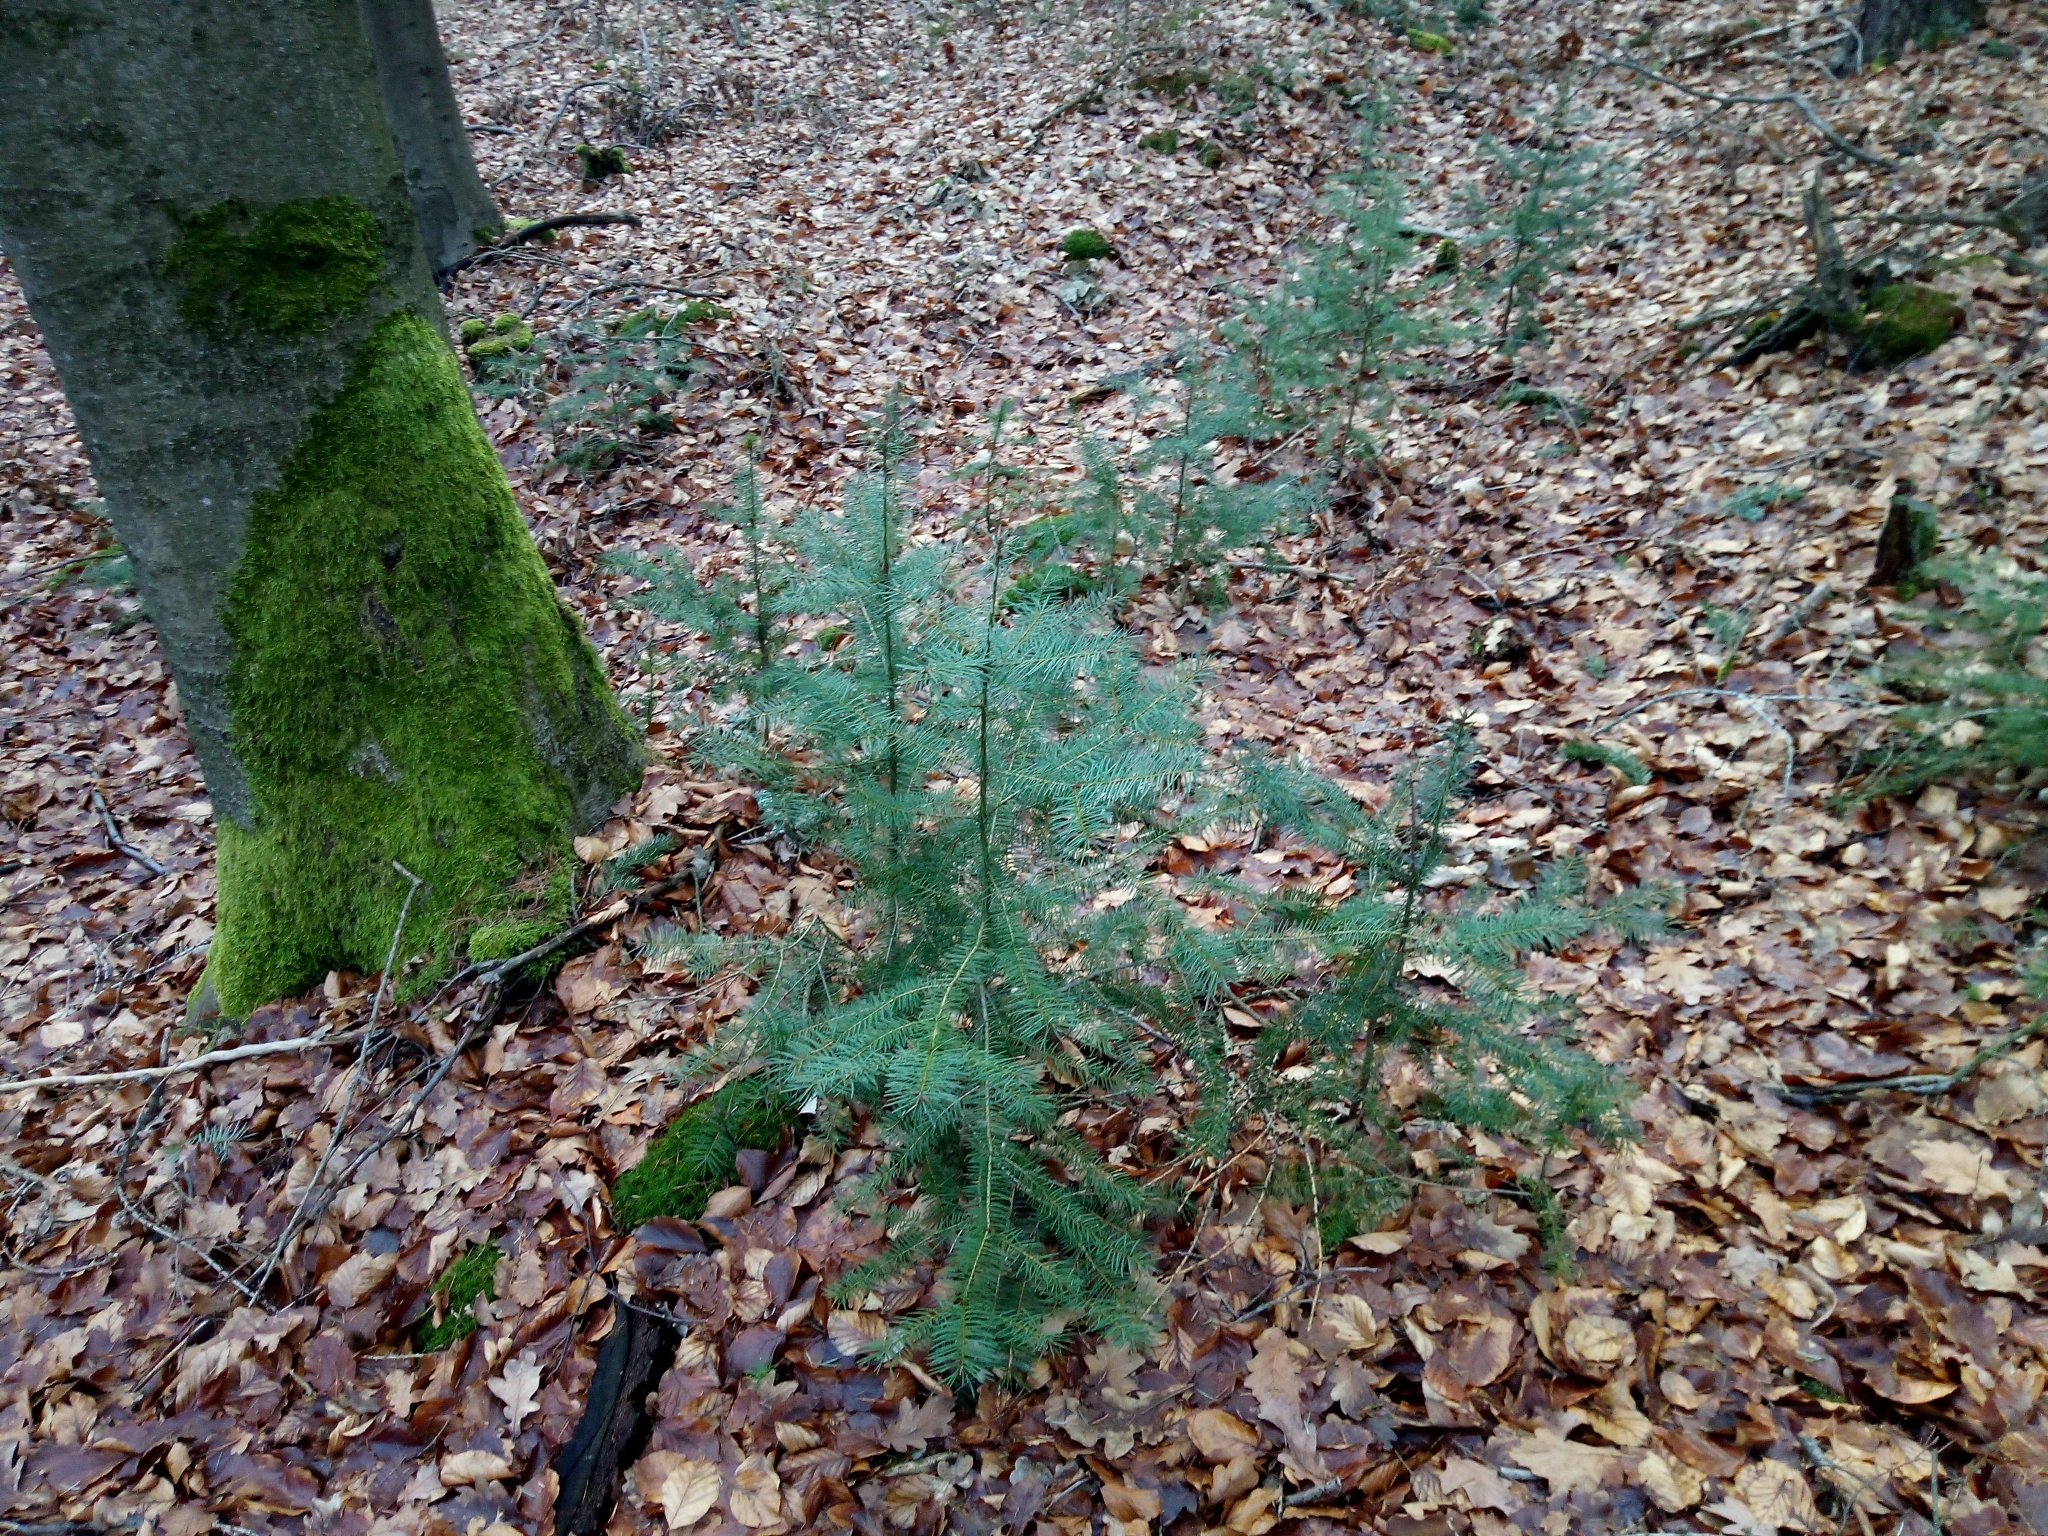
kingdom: Plantae
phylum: Tracheophyta
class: Pinopsida
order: Pinales
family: Pinaceae
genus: Pseudotsuga
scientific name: Pseudotsuga menziesii
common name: Douglas fir
